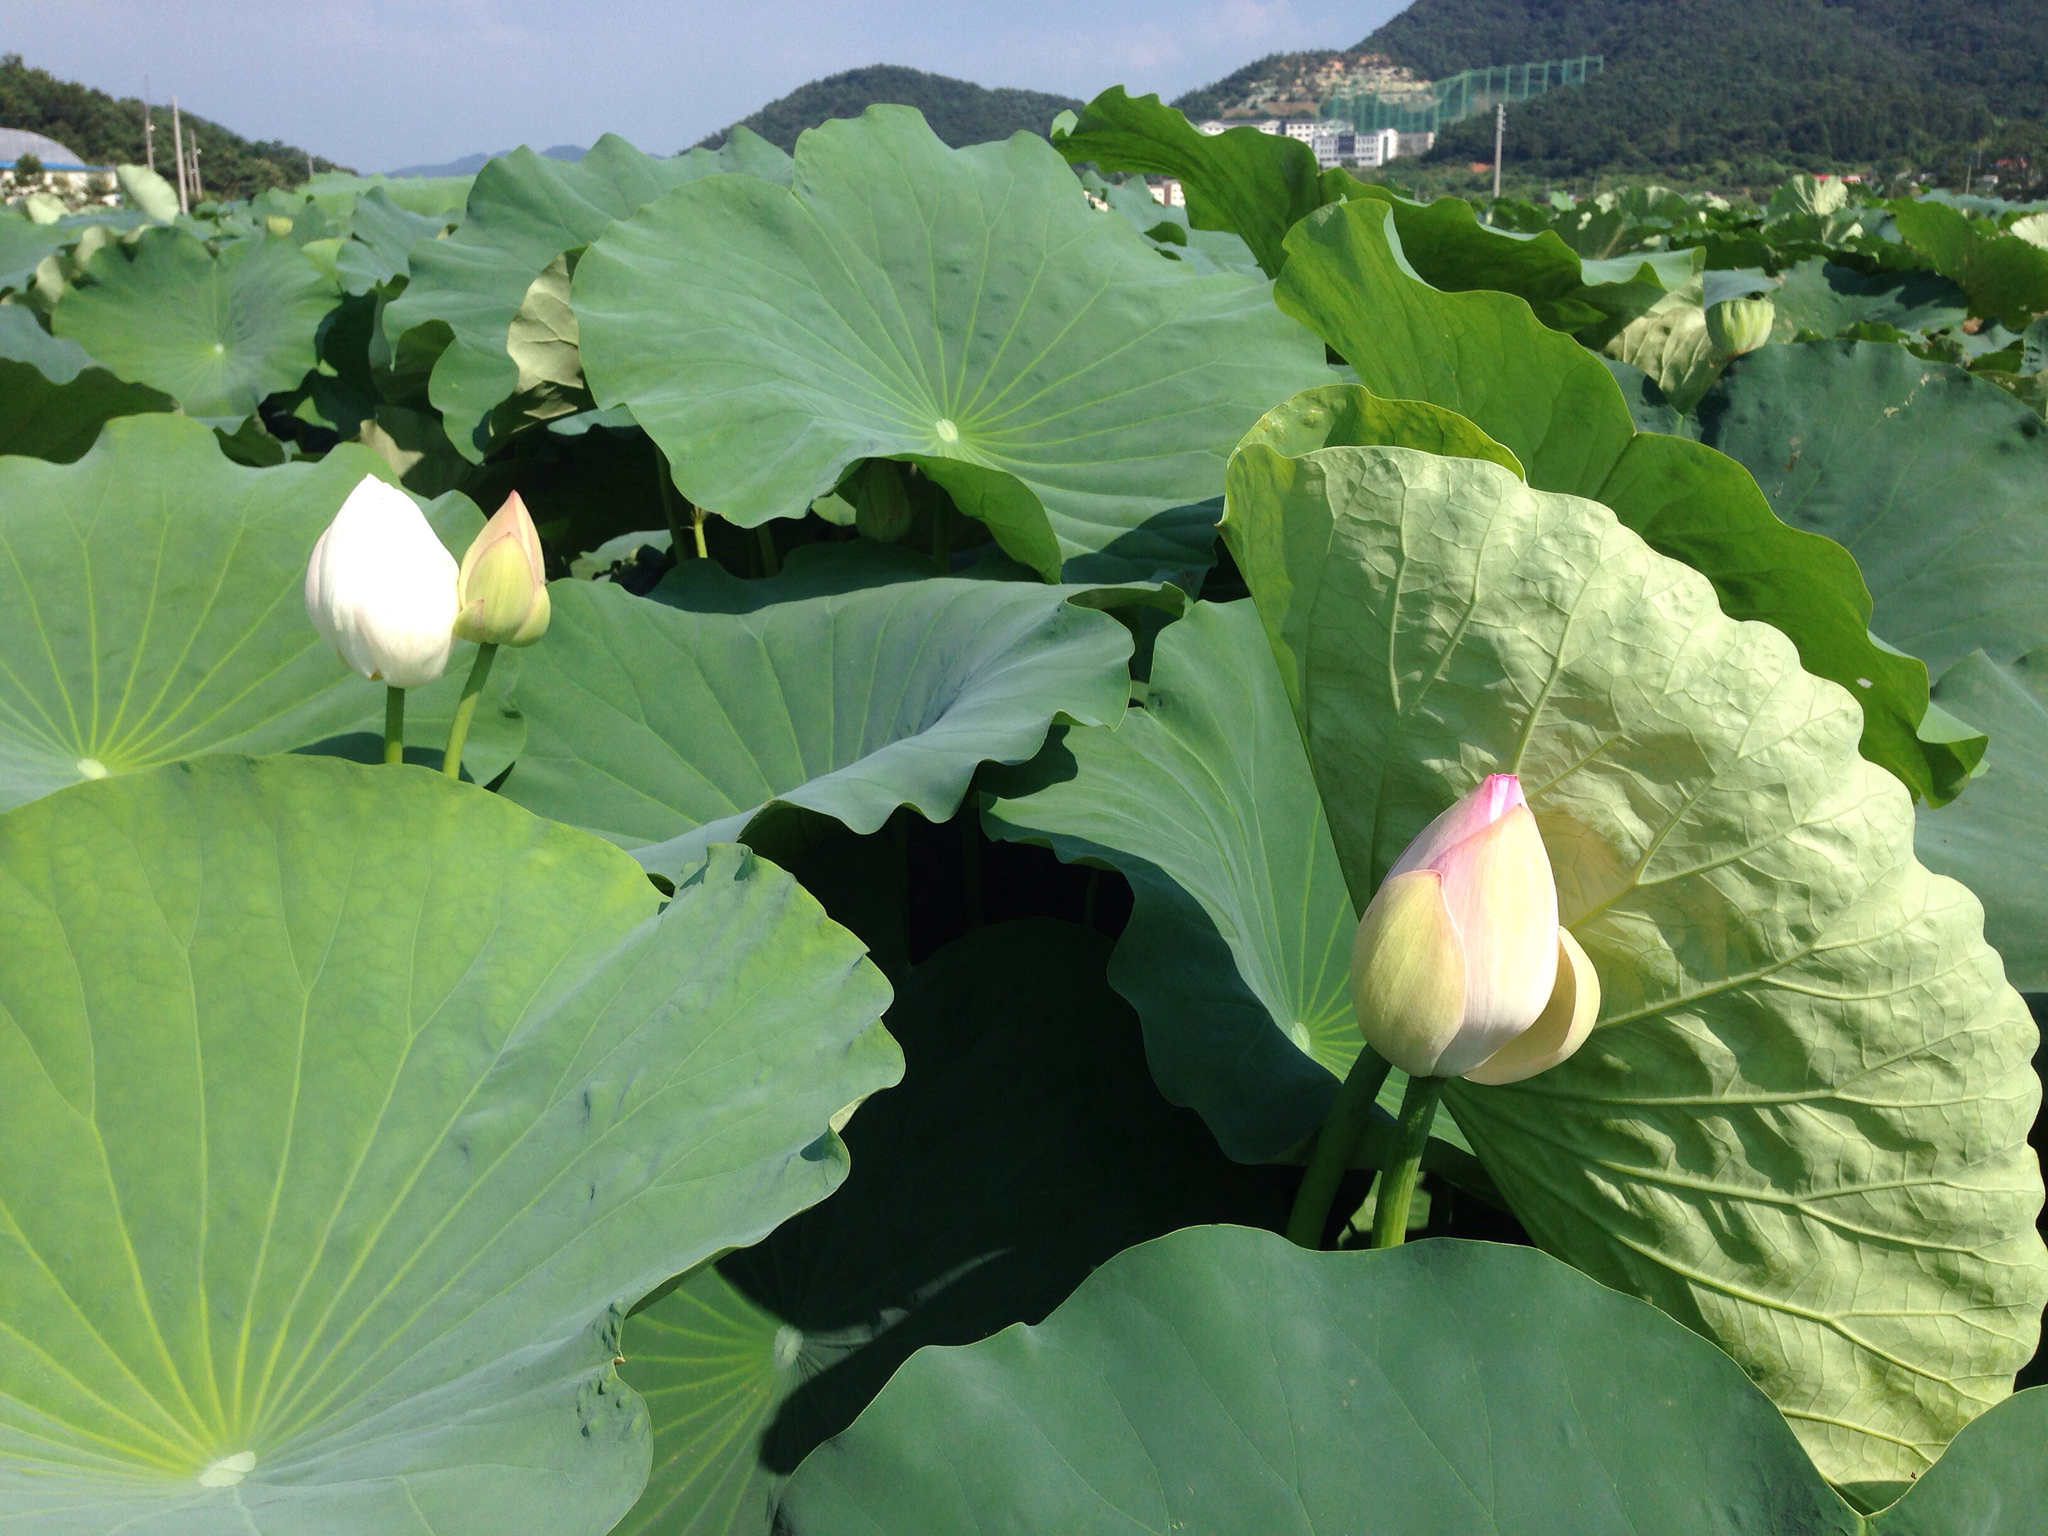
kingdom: Plantae
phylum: Tracheophyta
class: Magnoliopsida
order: Proteales
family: Nelumbonaceae
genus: Nelumbo
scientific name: Nelumbo nucifera
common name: Sacred lotus
